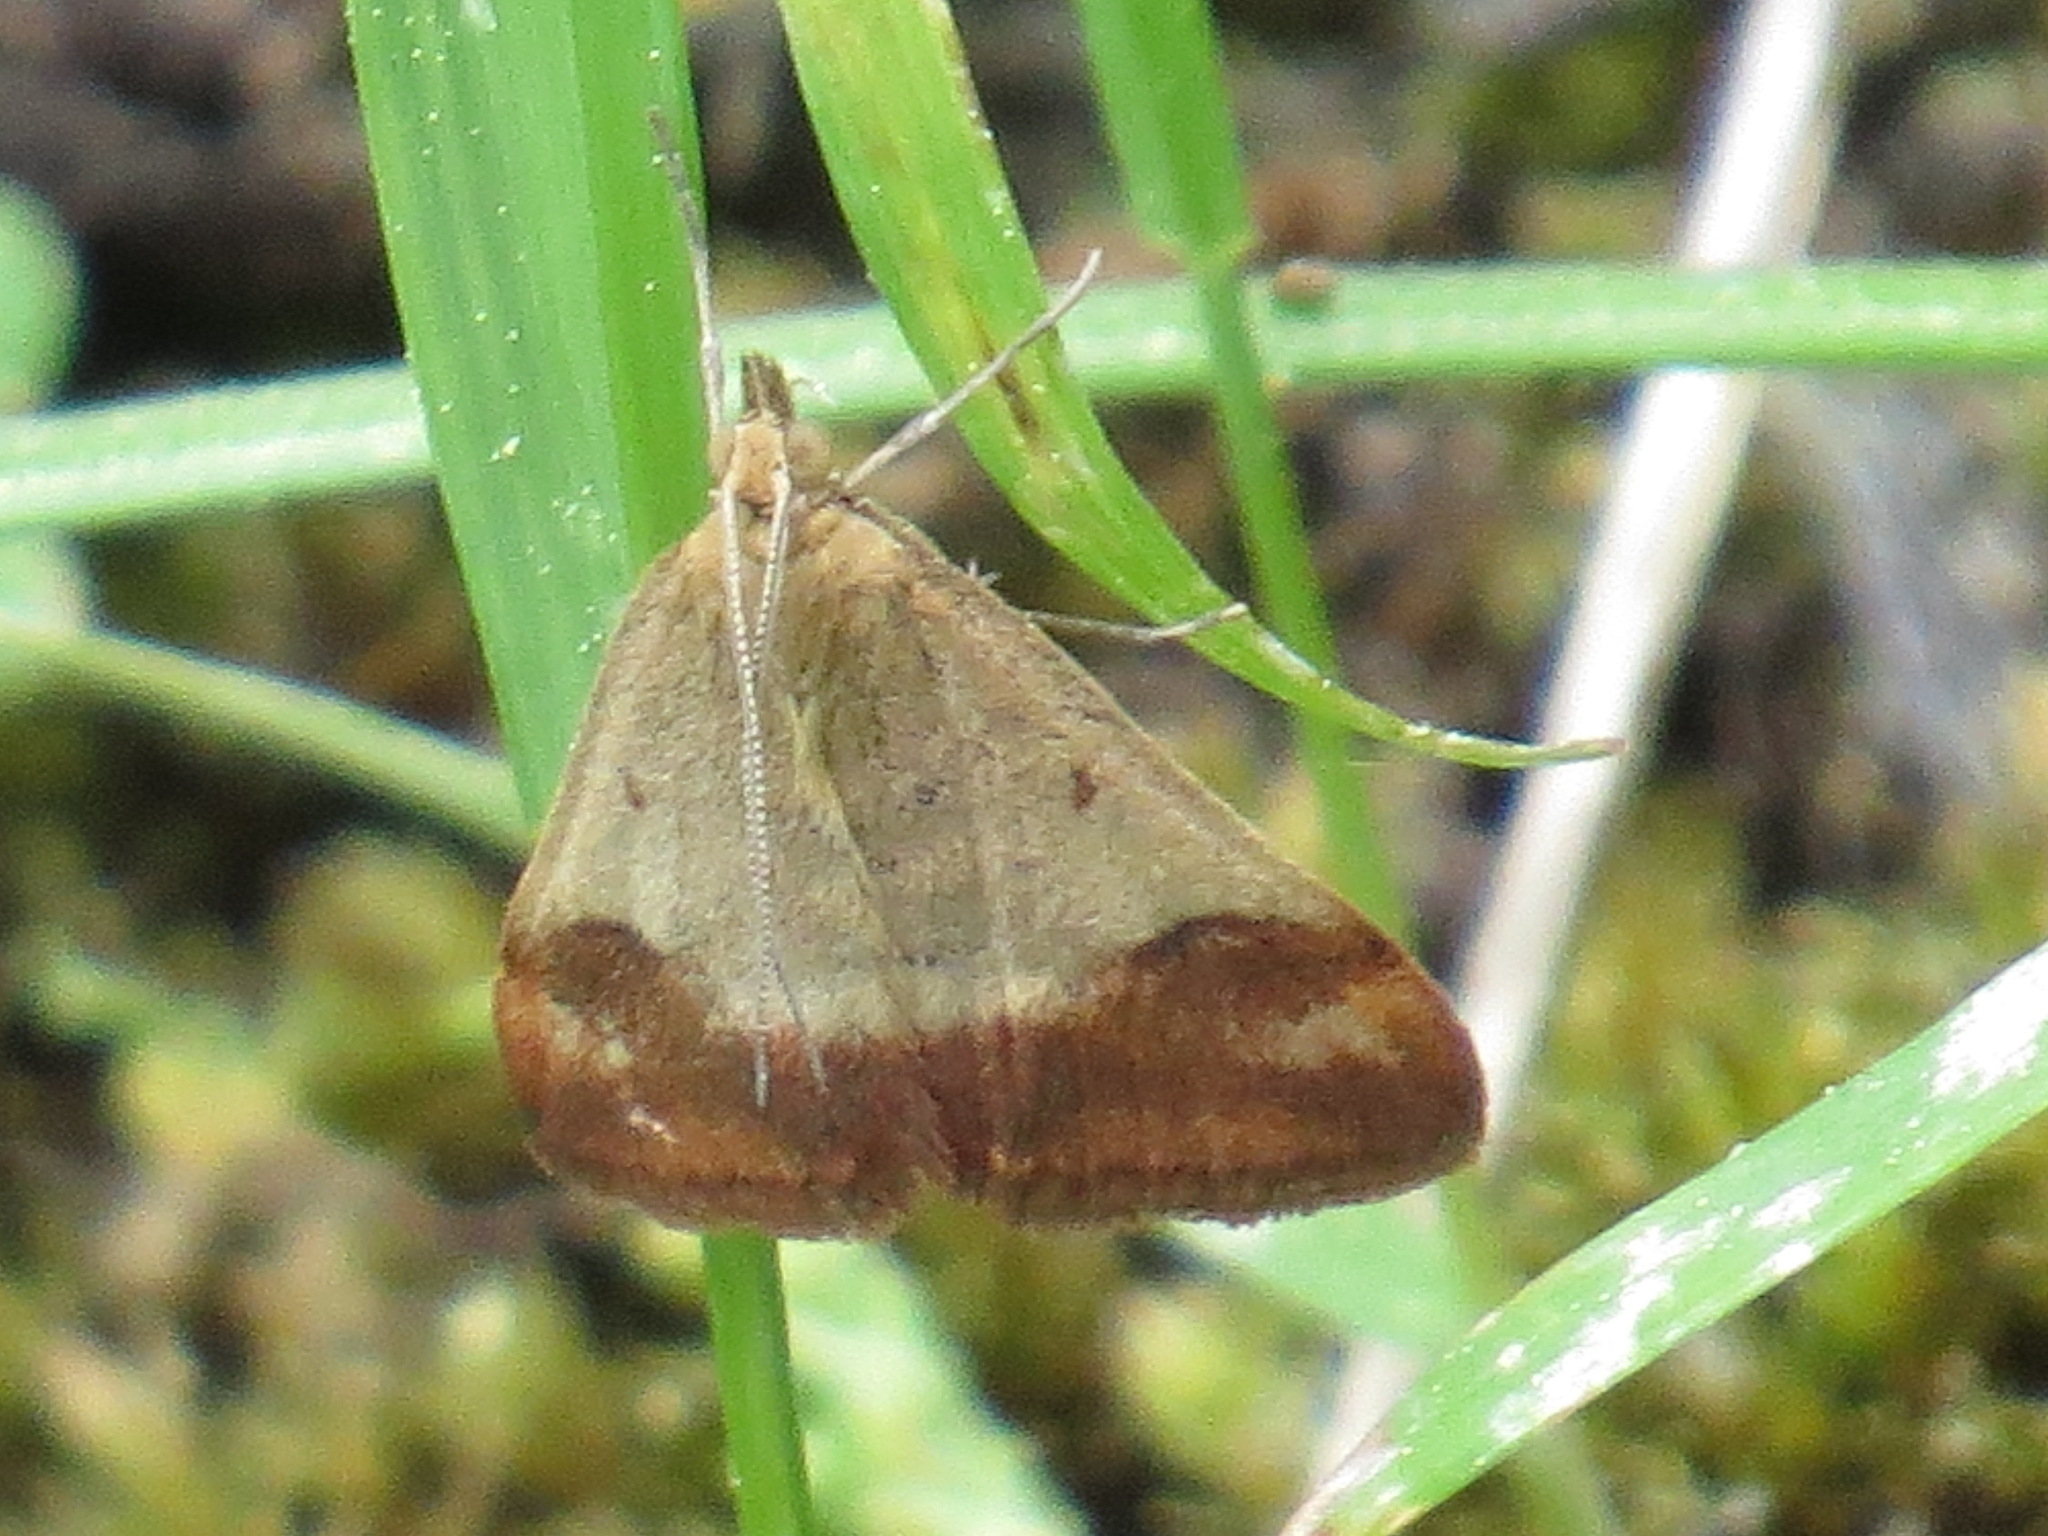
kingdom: Animalia
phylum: Arthropoda
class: Insecta
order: Lepidoptera
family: Crambidae
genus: Pyrausta
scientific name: Pyrausta semirubralis
